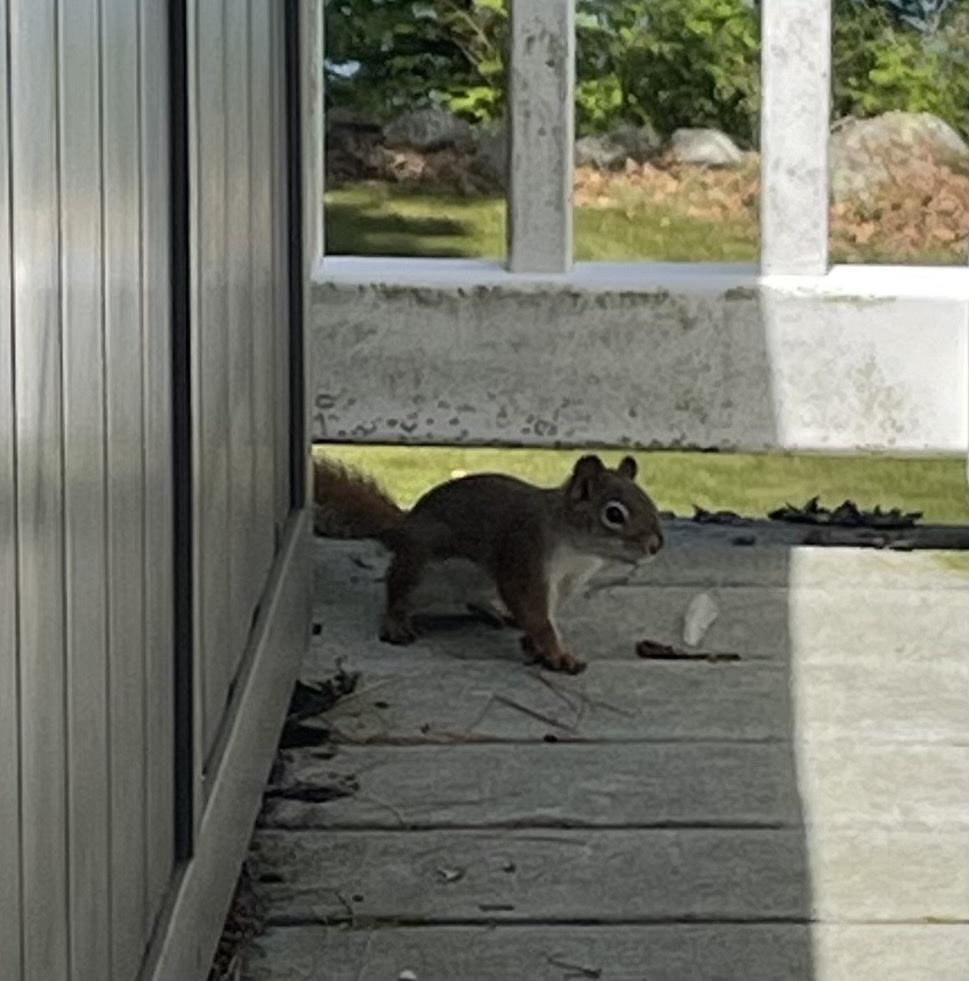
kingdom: Animalia
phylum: Chordata
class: Mammalia
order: Rodentia
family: Sciuridae
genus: Tamiasciurus
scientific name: Tamiasciurus hudsonicus
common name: Red squirrel
